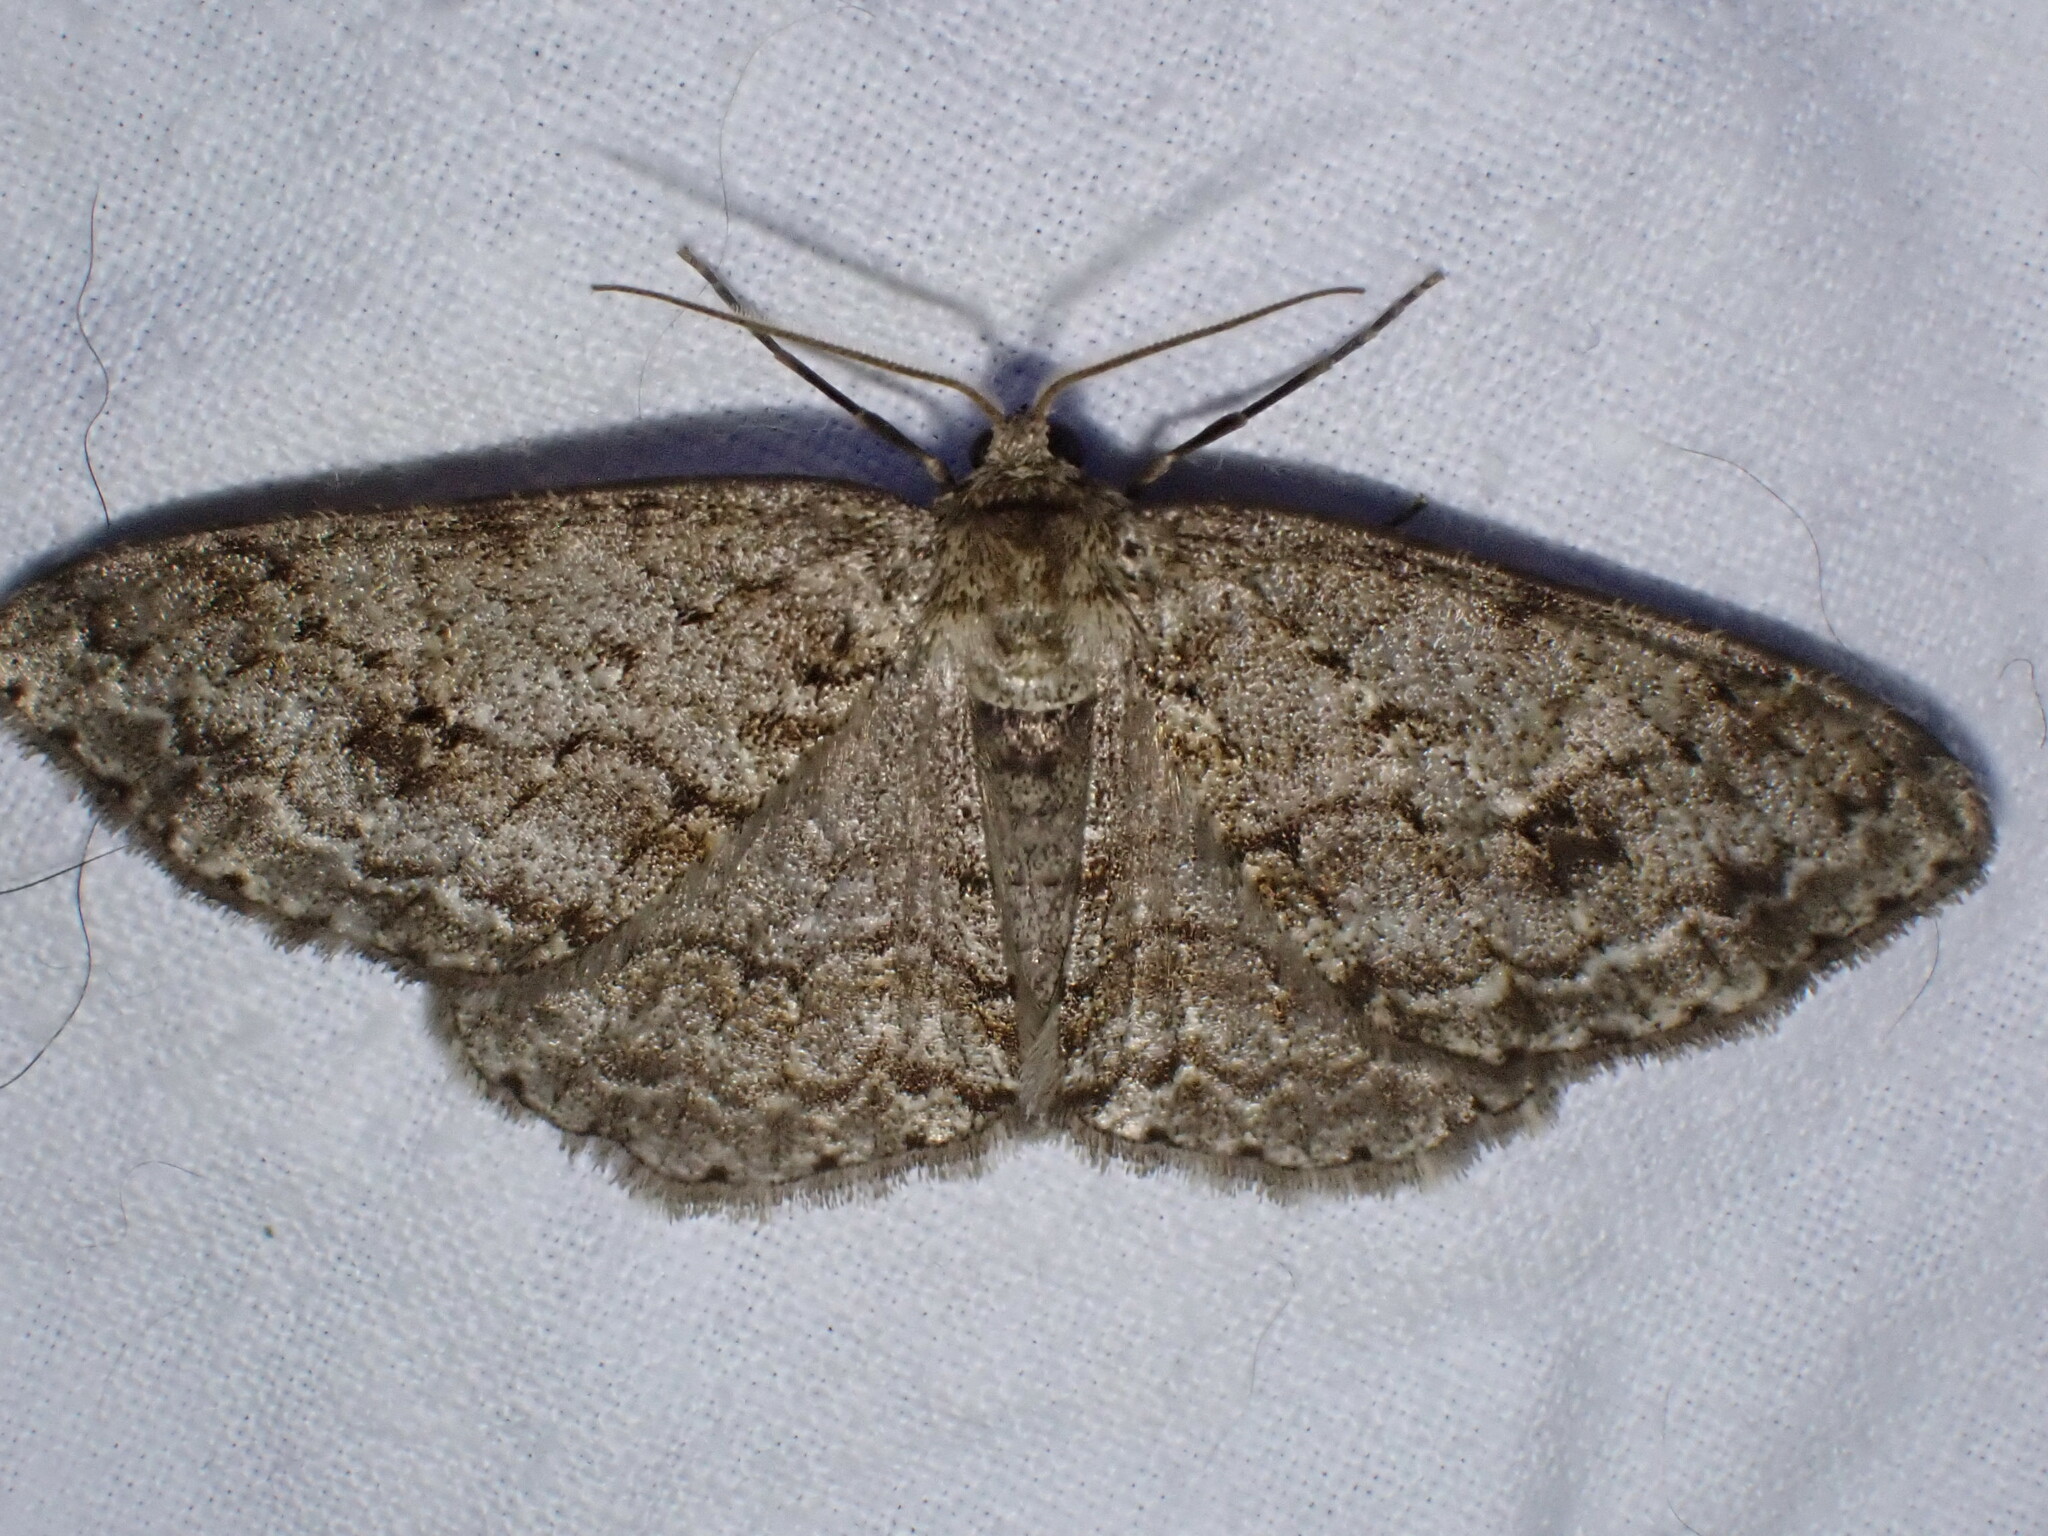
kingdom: Animalia
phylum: Arthropoda
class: Insecta
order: Lepidoptera
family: Geometridae
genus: Ectropis
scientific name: Ectropis crepuscularia
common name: Engrailed
